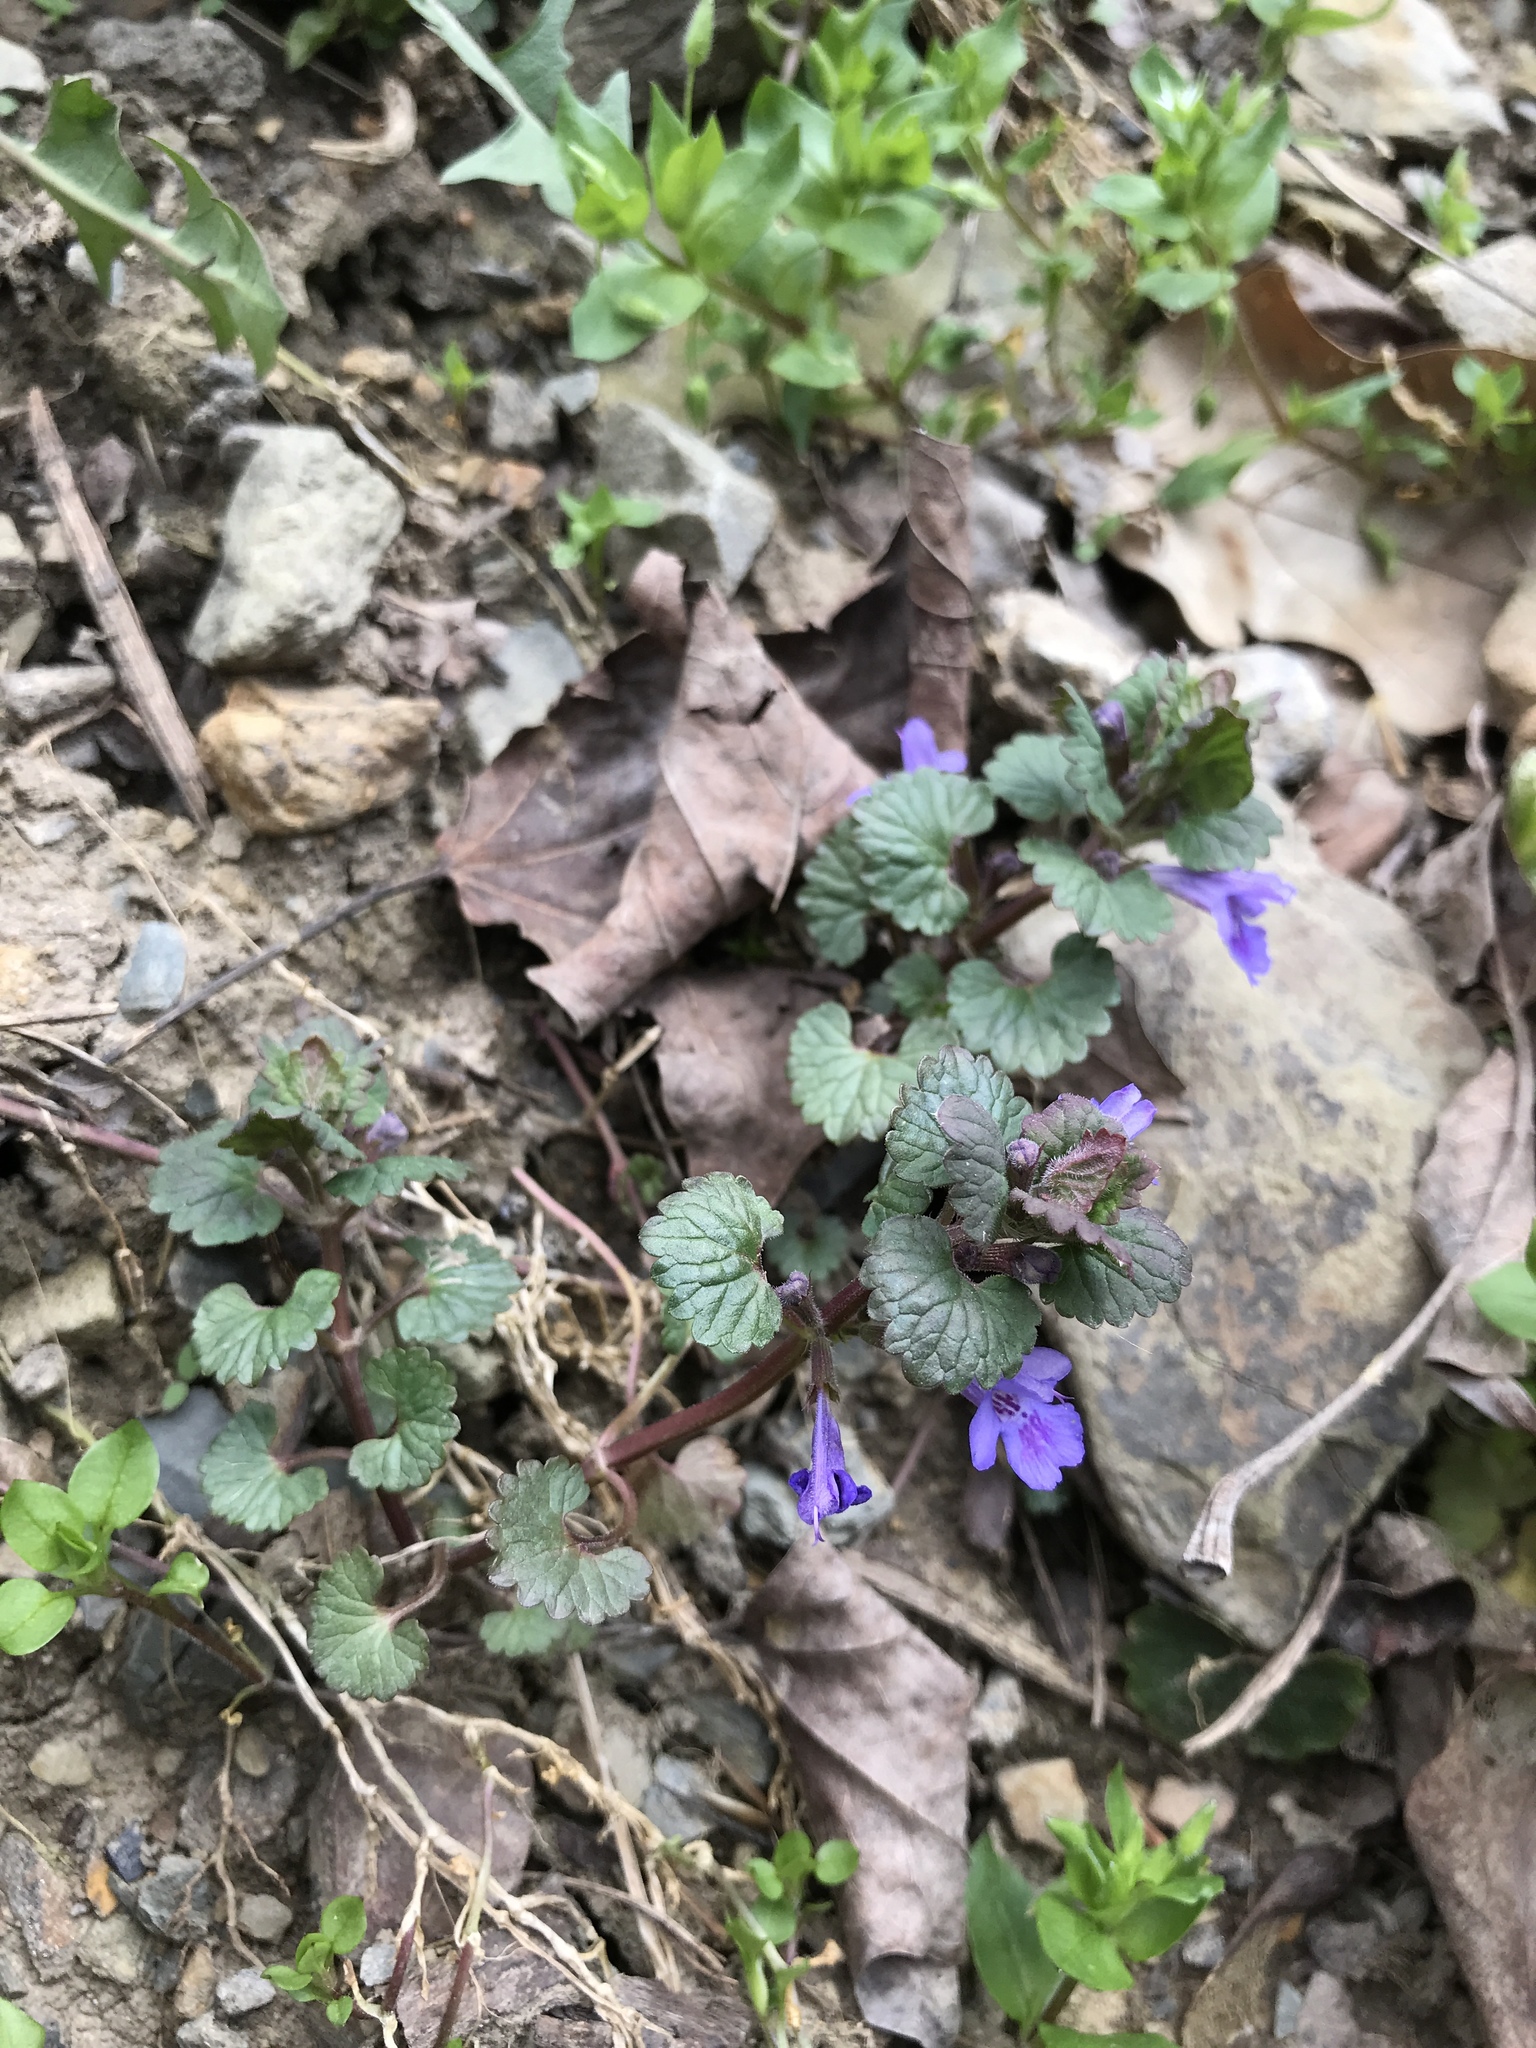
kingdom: Plantae
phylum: Tracheophyta
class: Magnoliopsida
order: Lamiales
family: Lamiaceae
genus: Glechoma
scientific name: Glechoma hederacea
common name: Ground ivy
